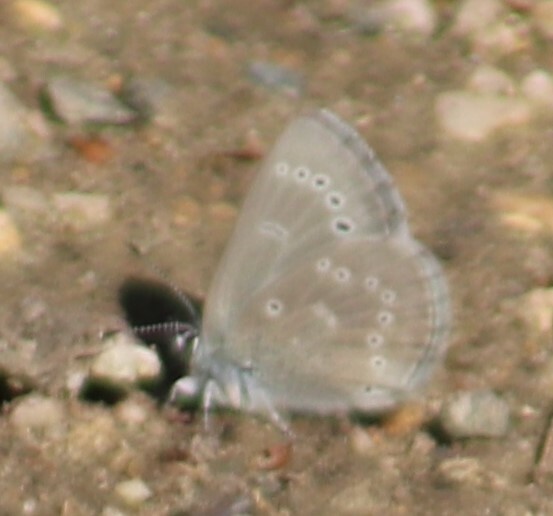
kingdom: Animalia
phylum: Arthropoda
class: Insecta
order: Lepidoptera
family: Lycaenidae
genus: Glaucopsyche
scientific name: Glaucopsyche lygdamus
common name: Silvery blue
